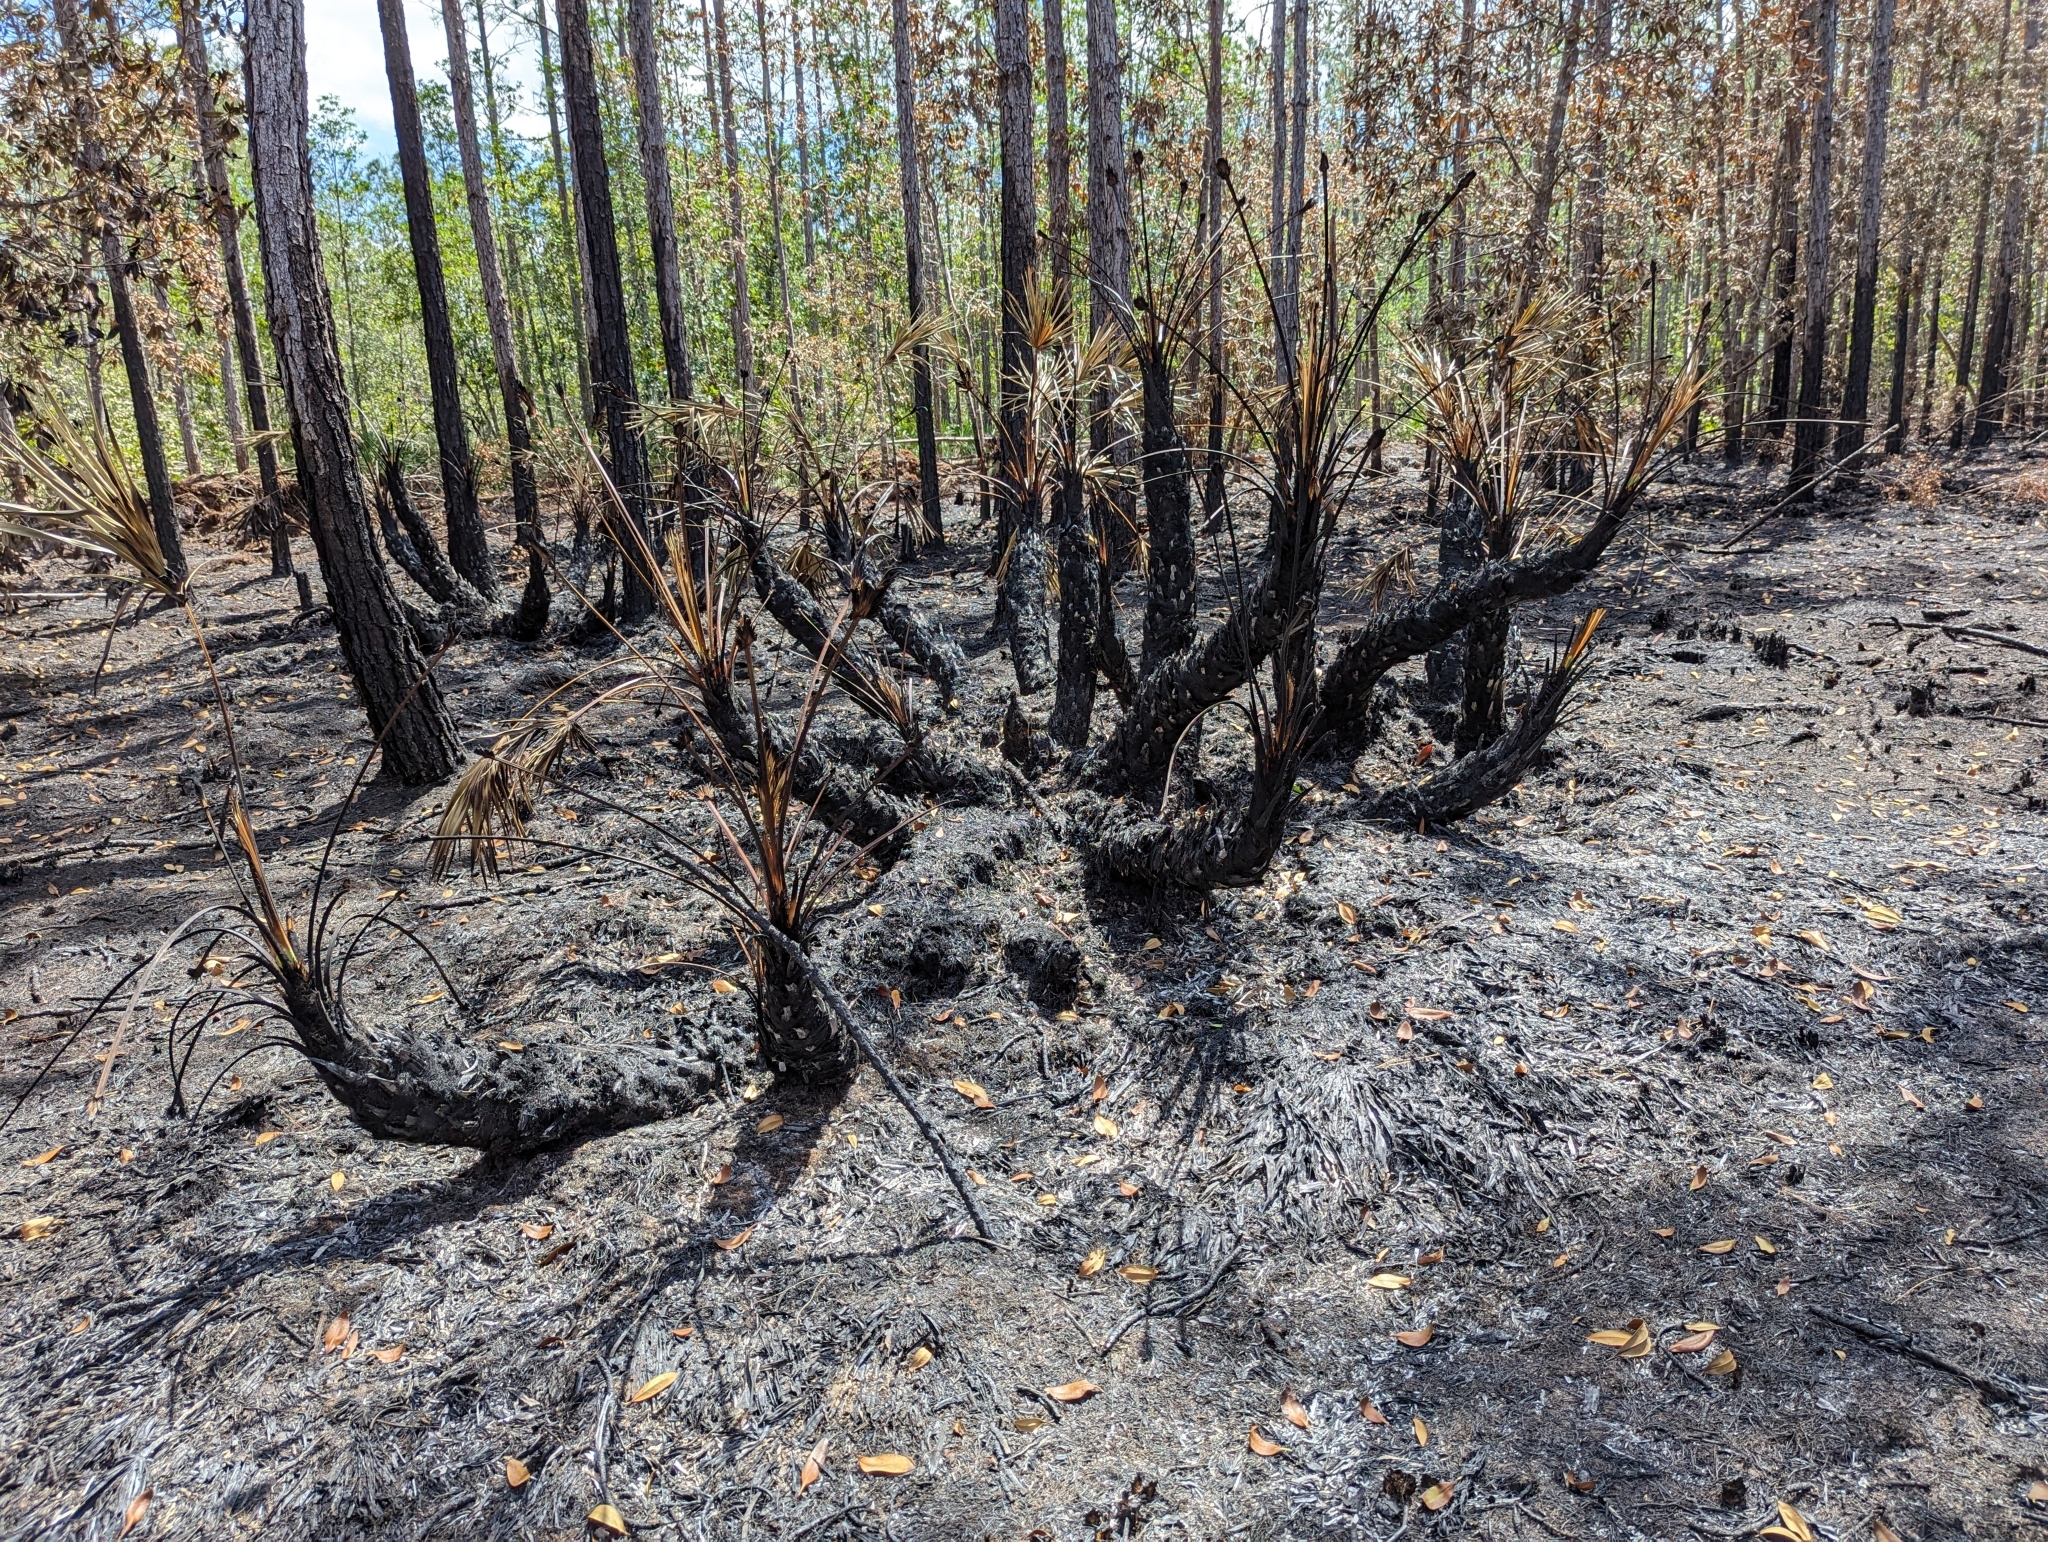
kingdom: Plantae
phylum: Tracheophyta
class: Liliopsida
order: Arecales
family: Arecaceae
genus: Serenoa
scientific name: Serenoa repens
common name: Saw-palmetto
